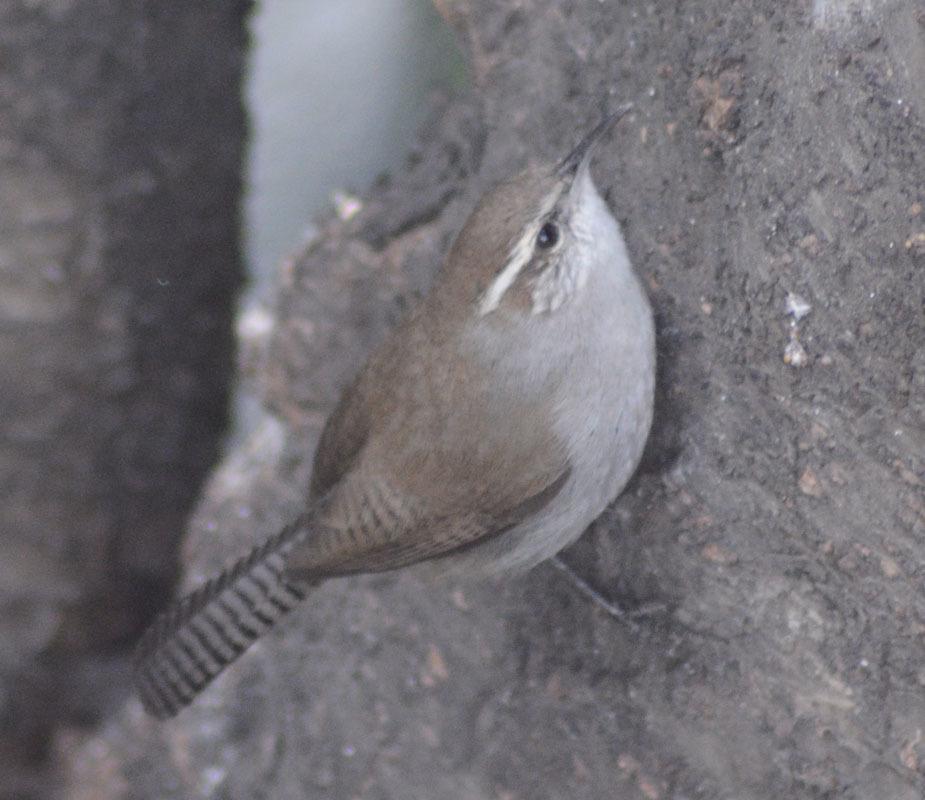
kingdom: Animalia
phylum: Chordata
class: Aves
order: Passeriformes
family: Troglodytidae
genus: Thryomanes
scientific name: Thryomanes bewickii
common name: Bewick's wren
